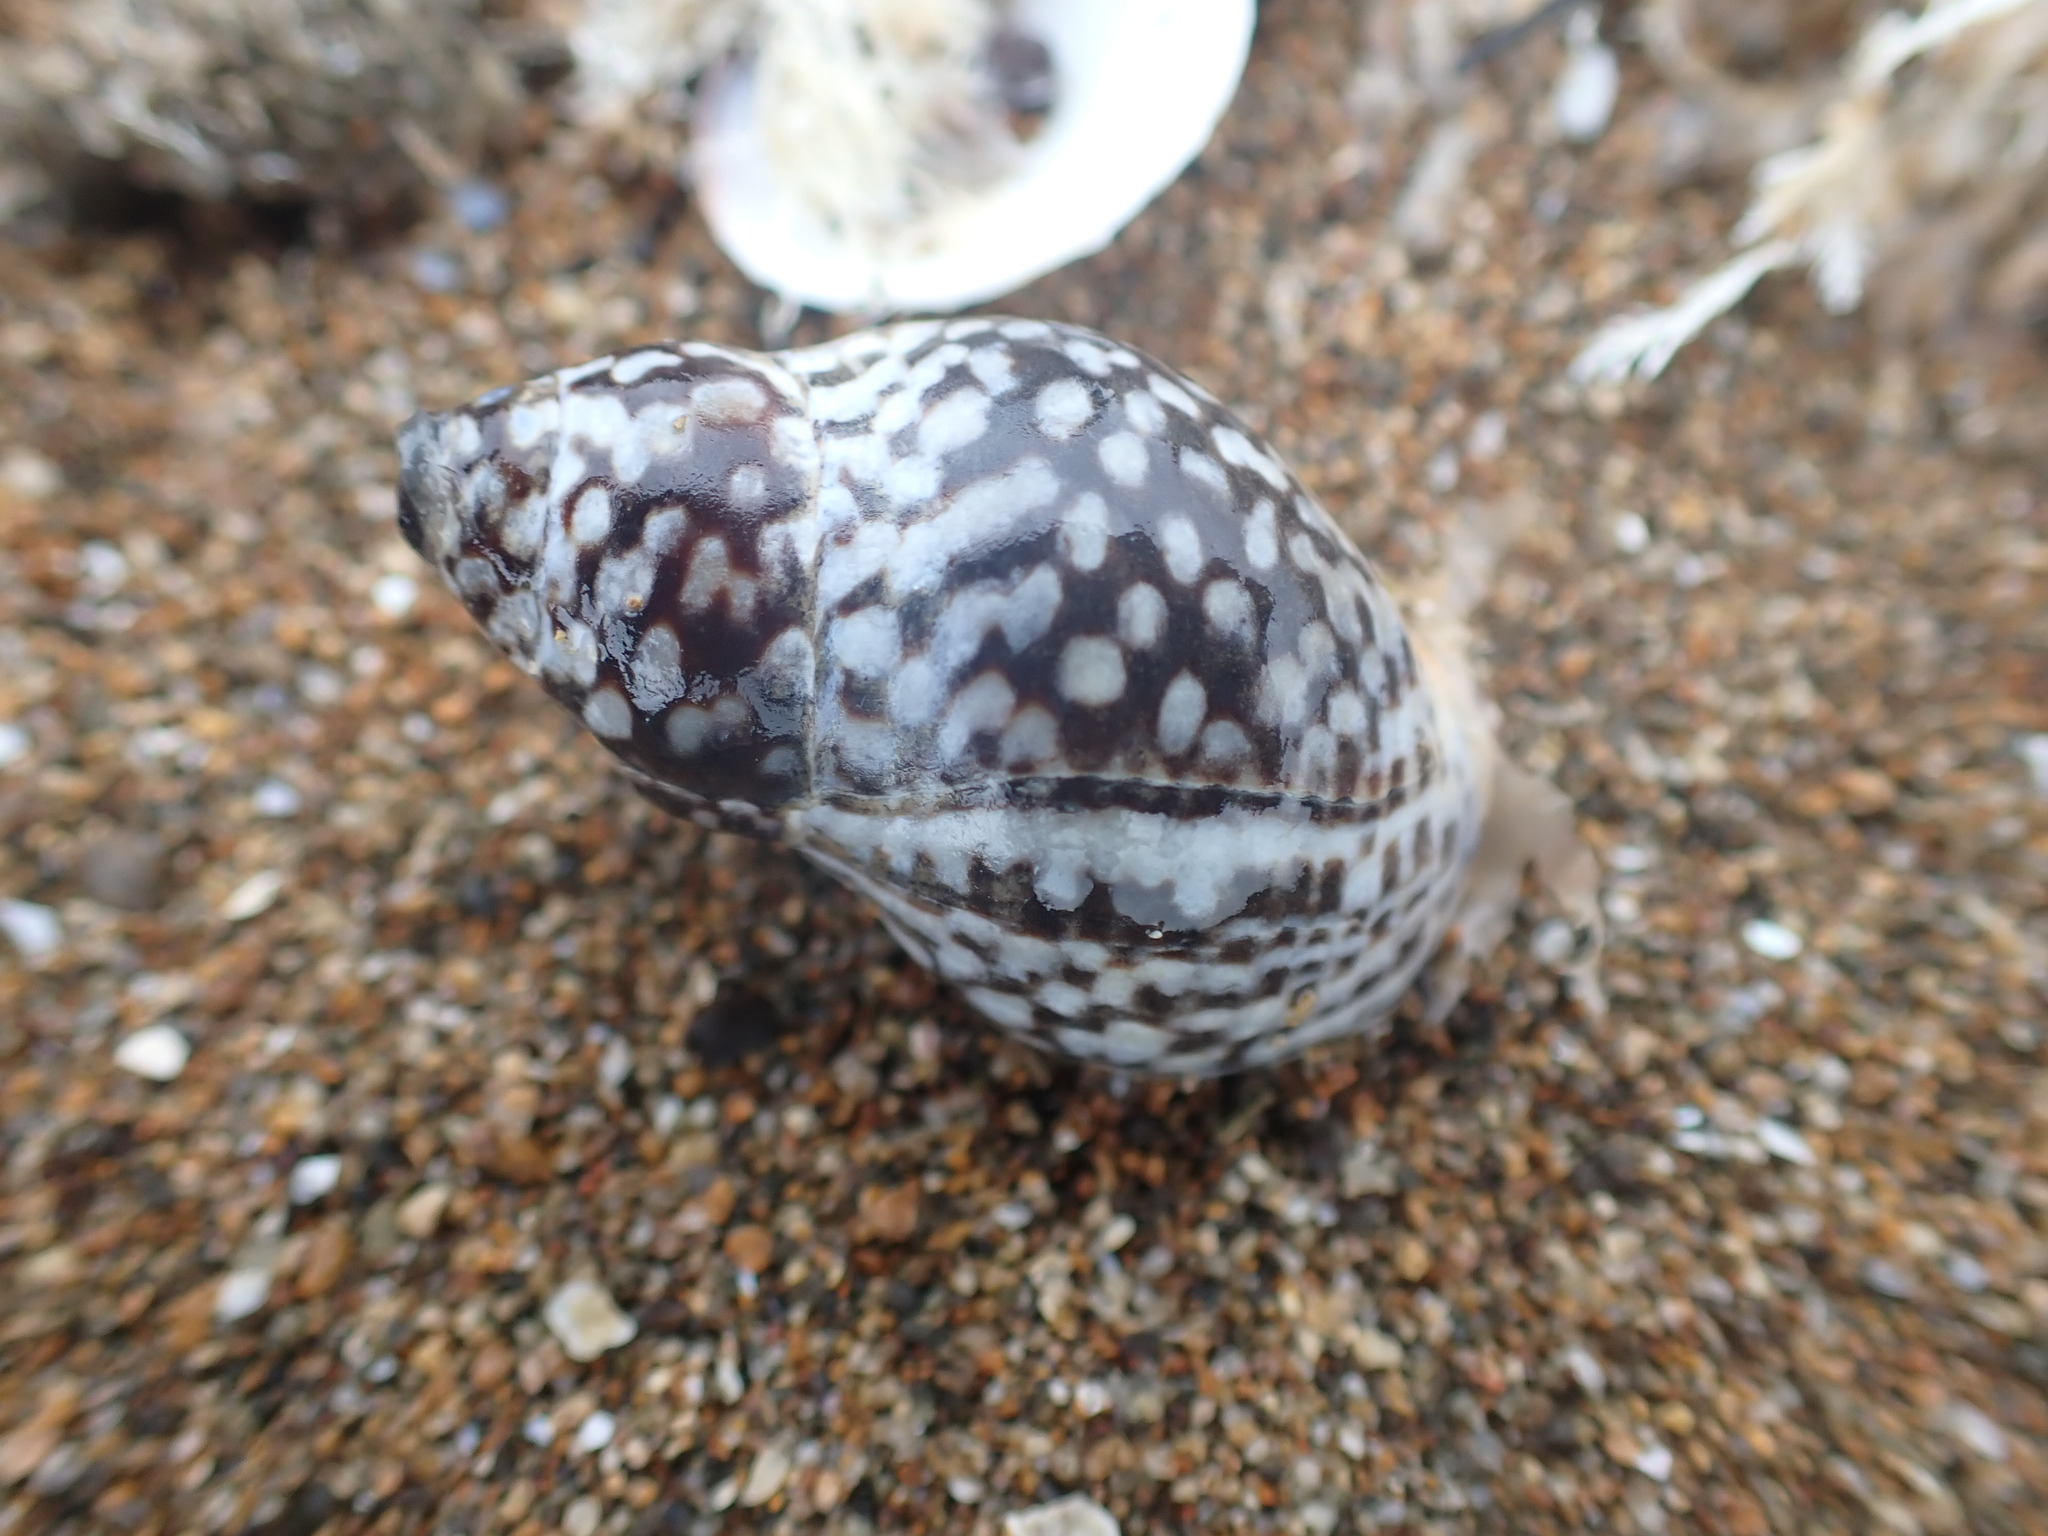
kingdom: Animalia
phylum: Mollusca
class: Gastropoda
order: Neogastropoda
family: Cominellidae
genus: Cominella
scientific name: Cominella maculosa
